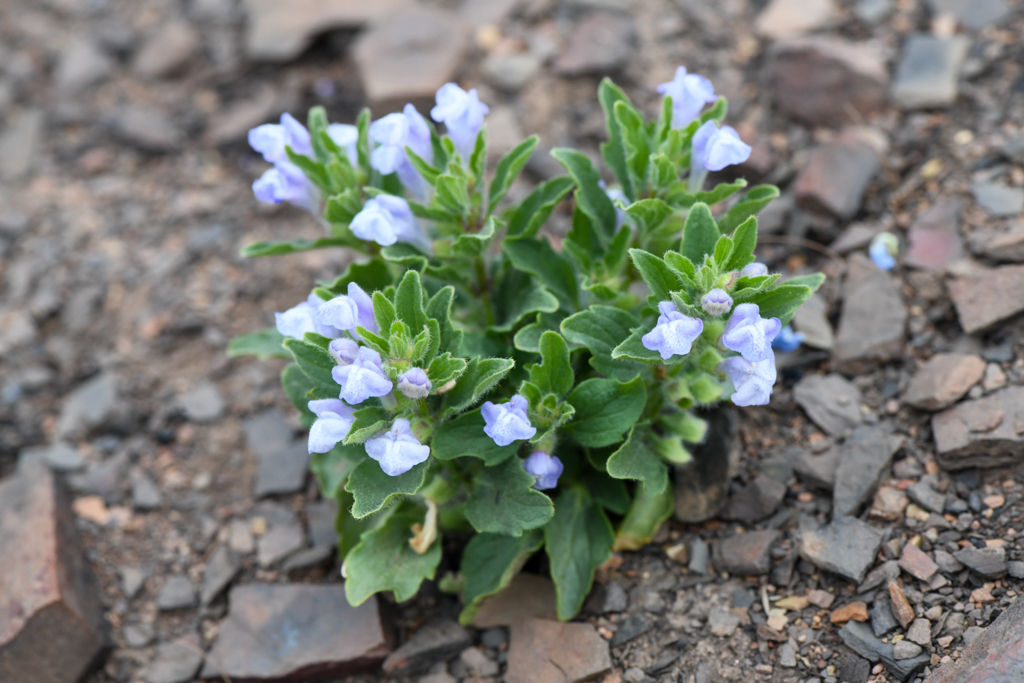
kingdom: Plantae
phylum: Tracheophyta
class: Magnoliopsida
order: Lamiales
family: Lamiaceae
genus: Scutellaria
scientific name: Scutellaria tuberosa
